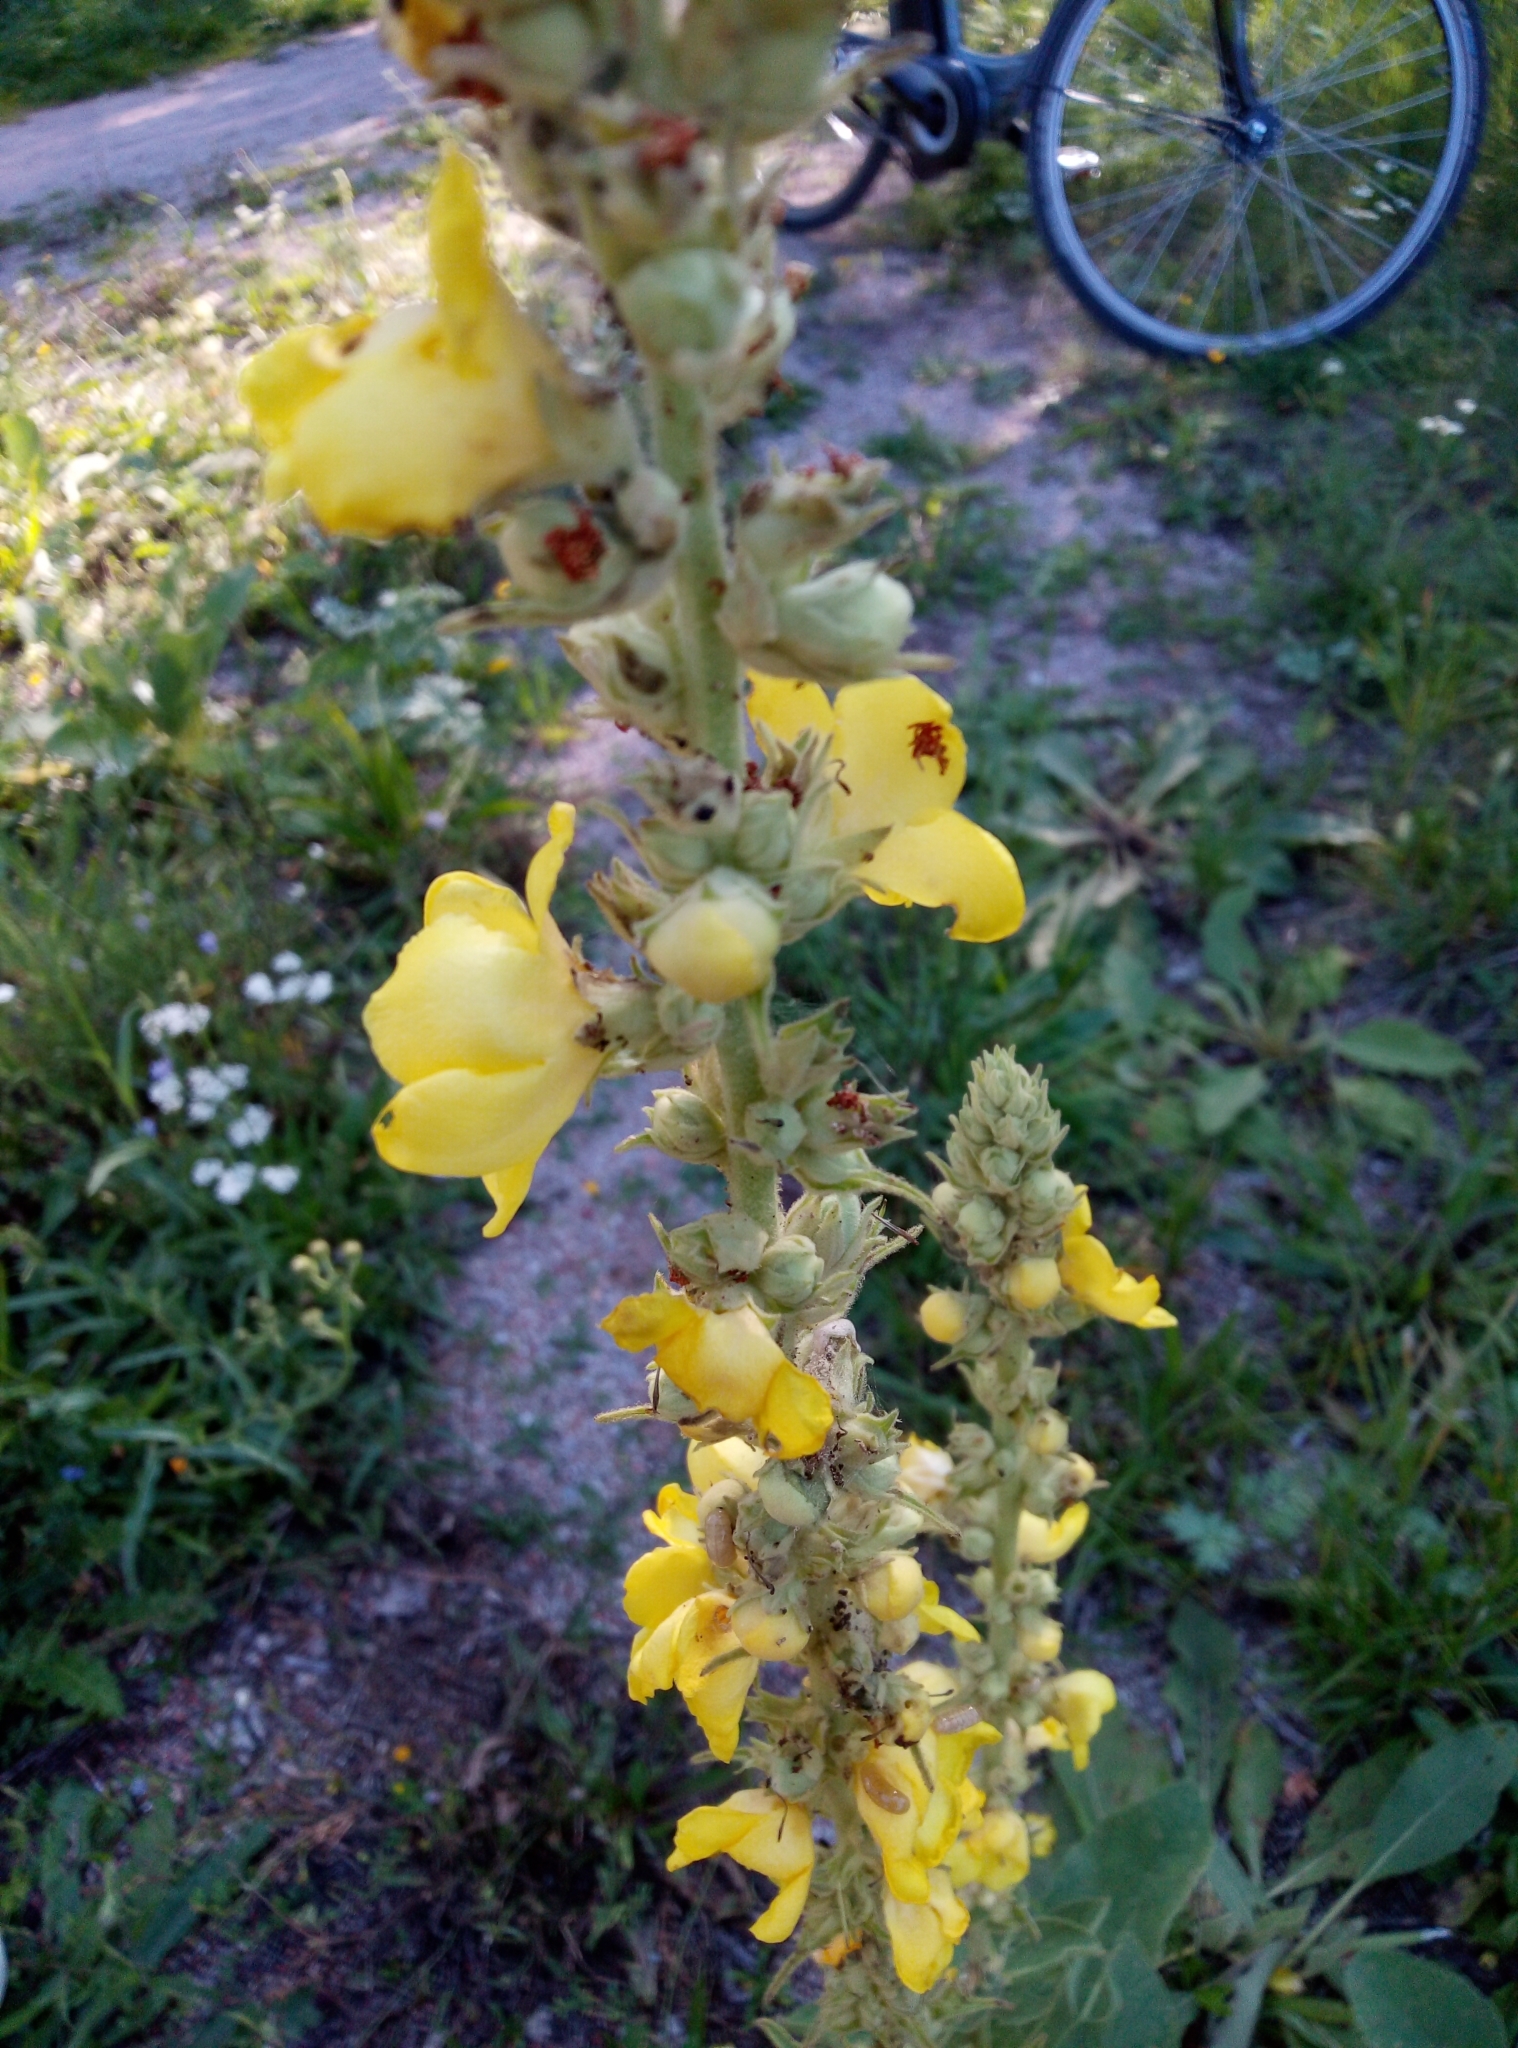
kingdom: Plantae
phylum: Tracheophyta
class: Magnoliopsida
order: Lamiales
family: Scrophulariaceae
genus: Verbascum
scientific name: Verbascum phlomoides
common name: Orange mullein
